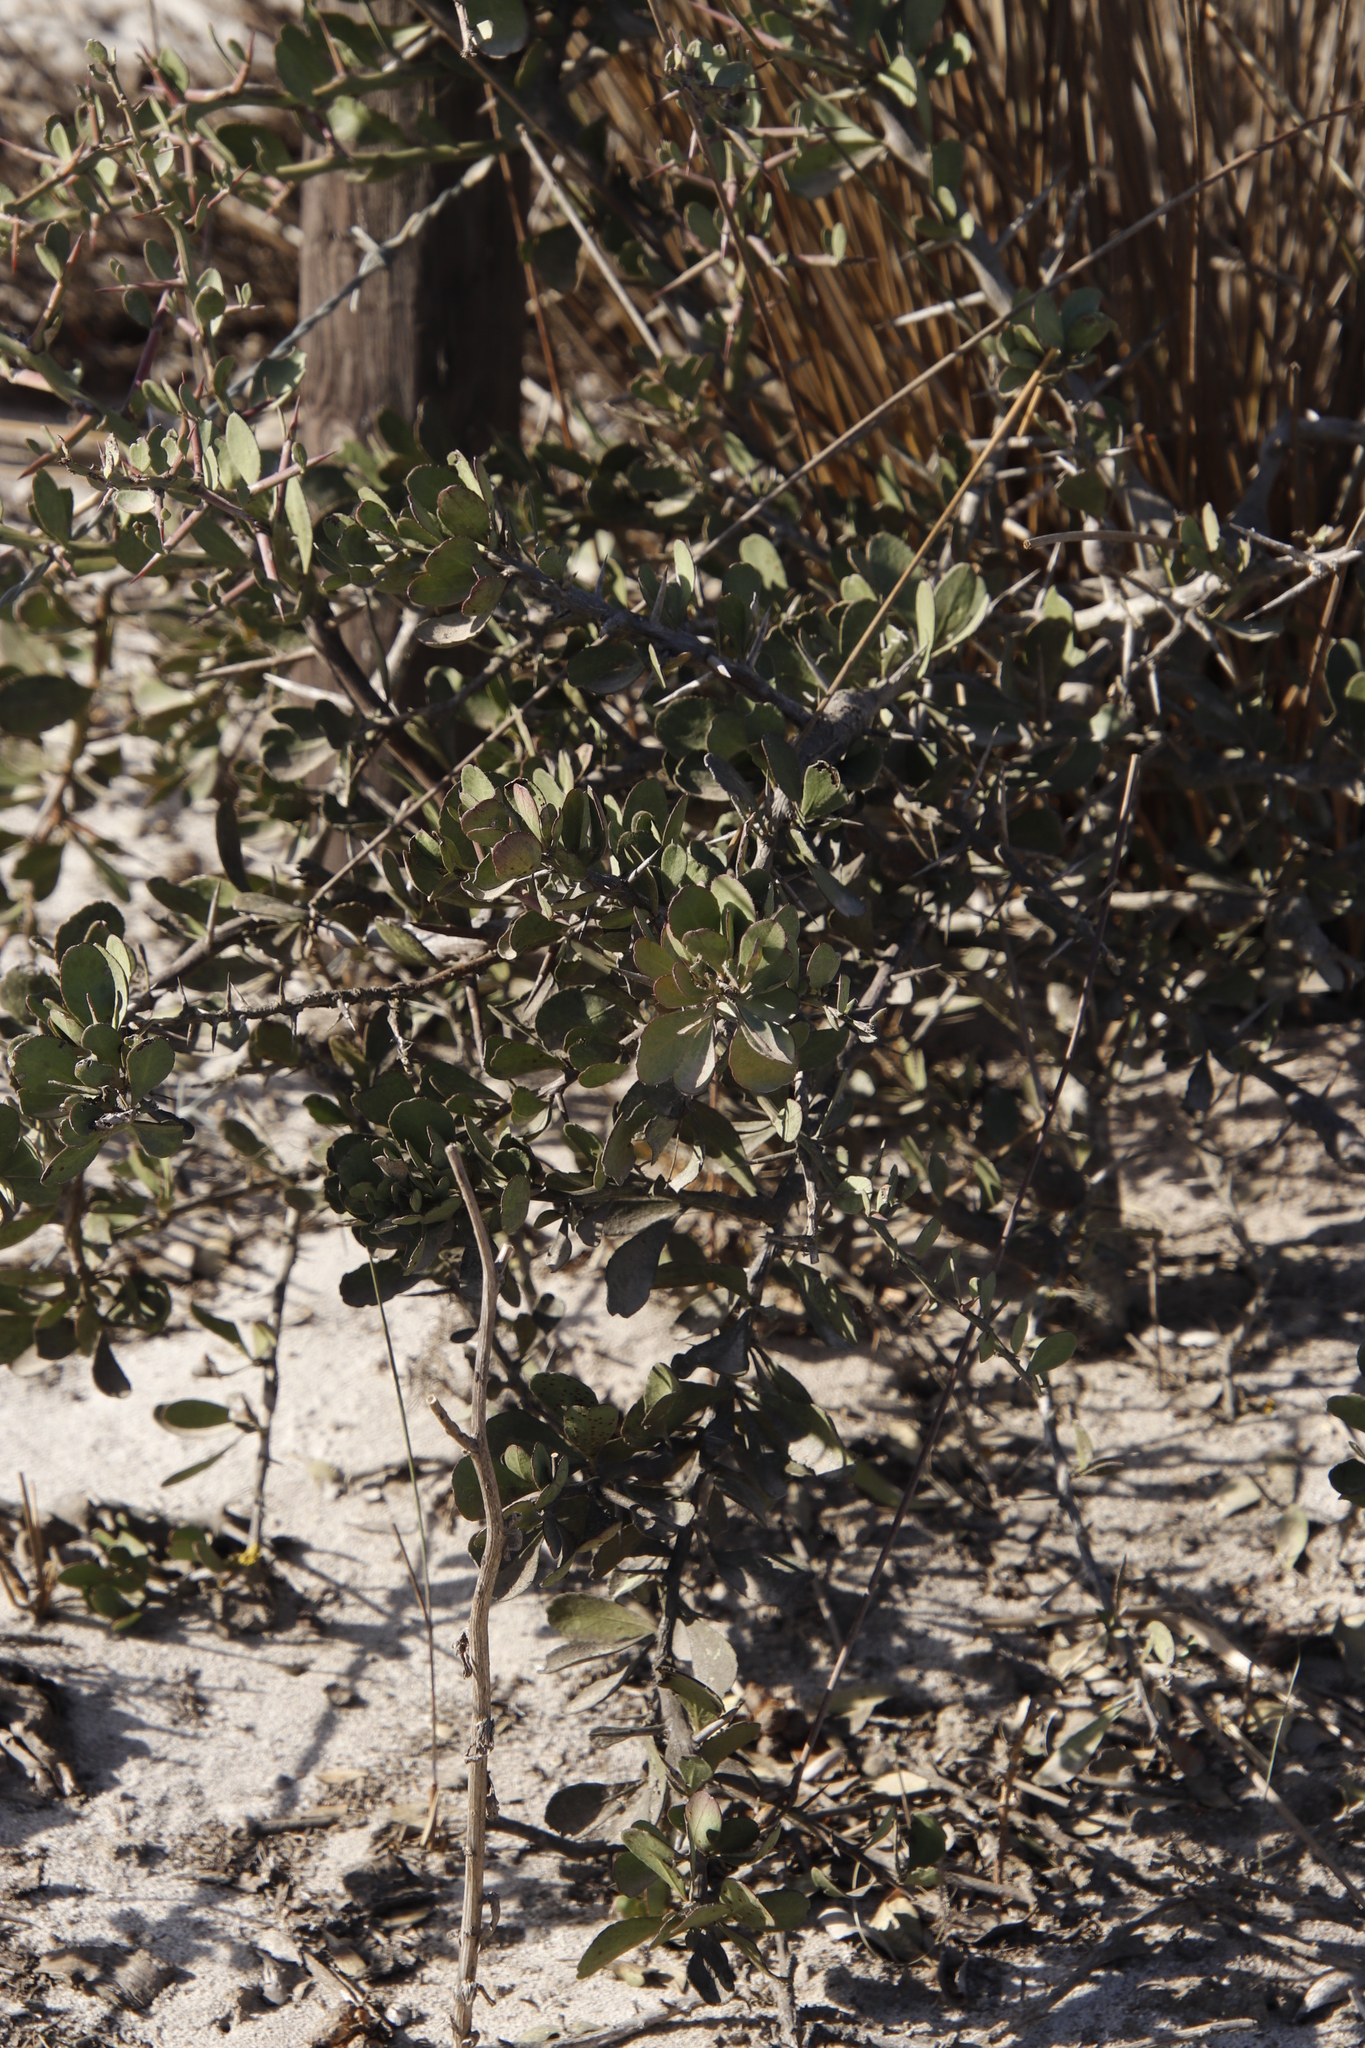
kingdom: Plantae
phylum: Tracheophyta
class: Magnoliopsida
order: Celastrales
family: Celastraceae
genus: Gymnosporia
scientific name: Gymnosporia buxifolia
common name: Common spike-thorn
